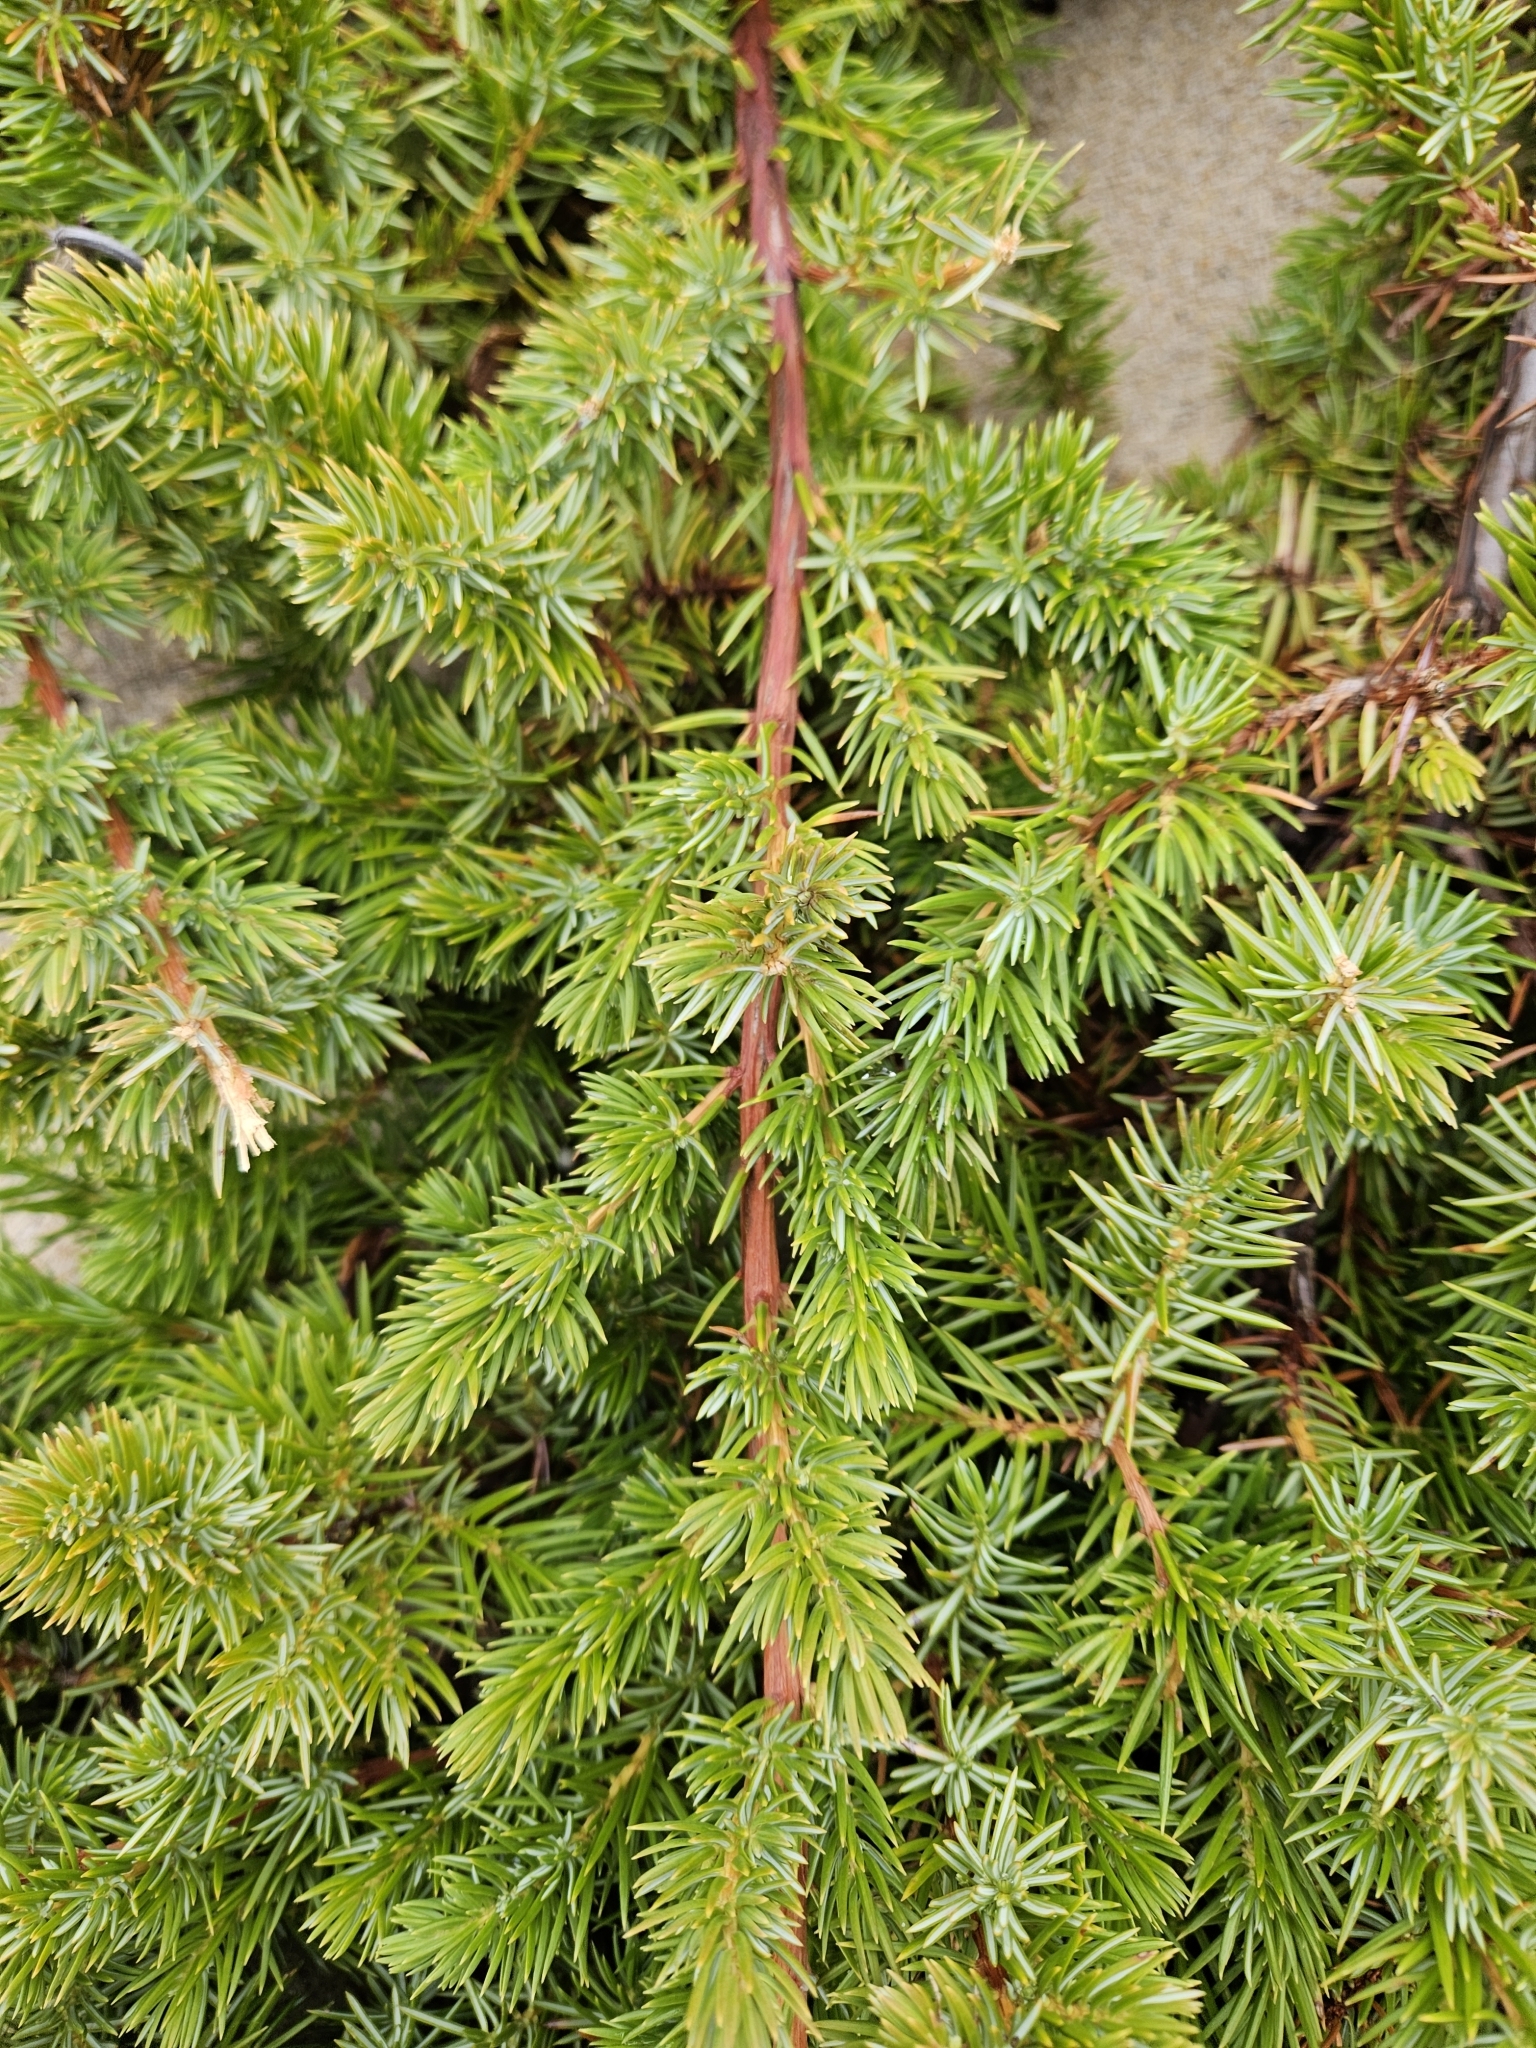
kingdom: Plantae
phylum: Tracheophyta
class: Pinopsida
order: Pinales
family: Cupressaceae
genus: Juniperus
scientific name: Juniperus rigida
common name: Needle juniper
